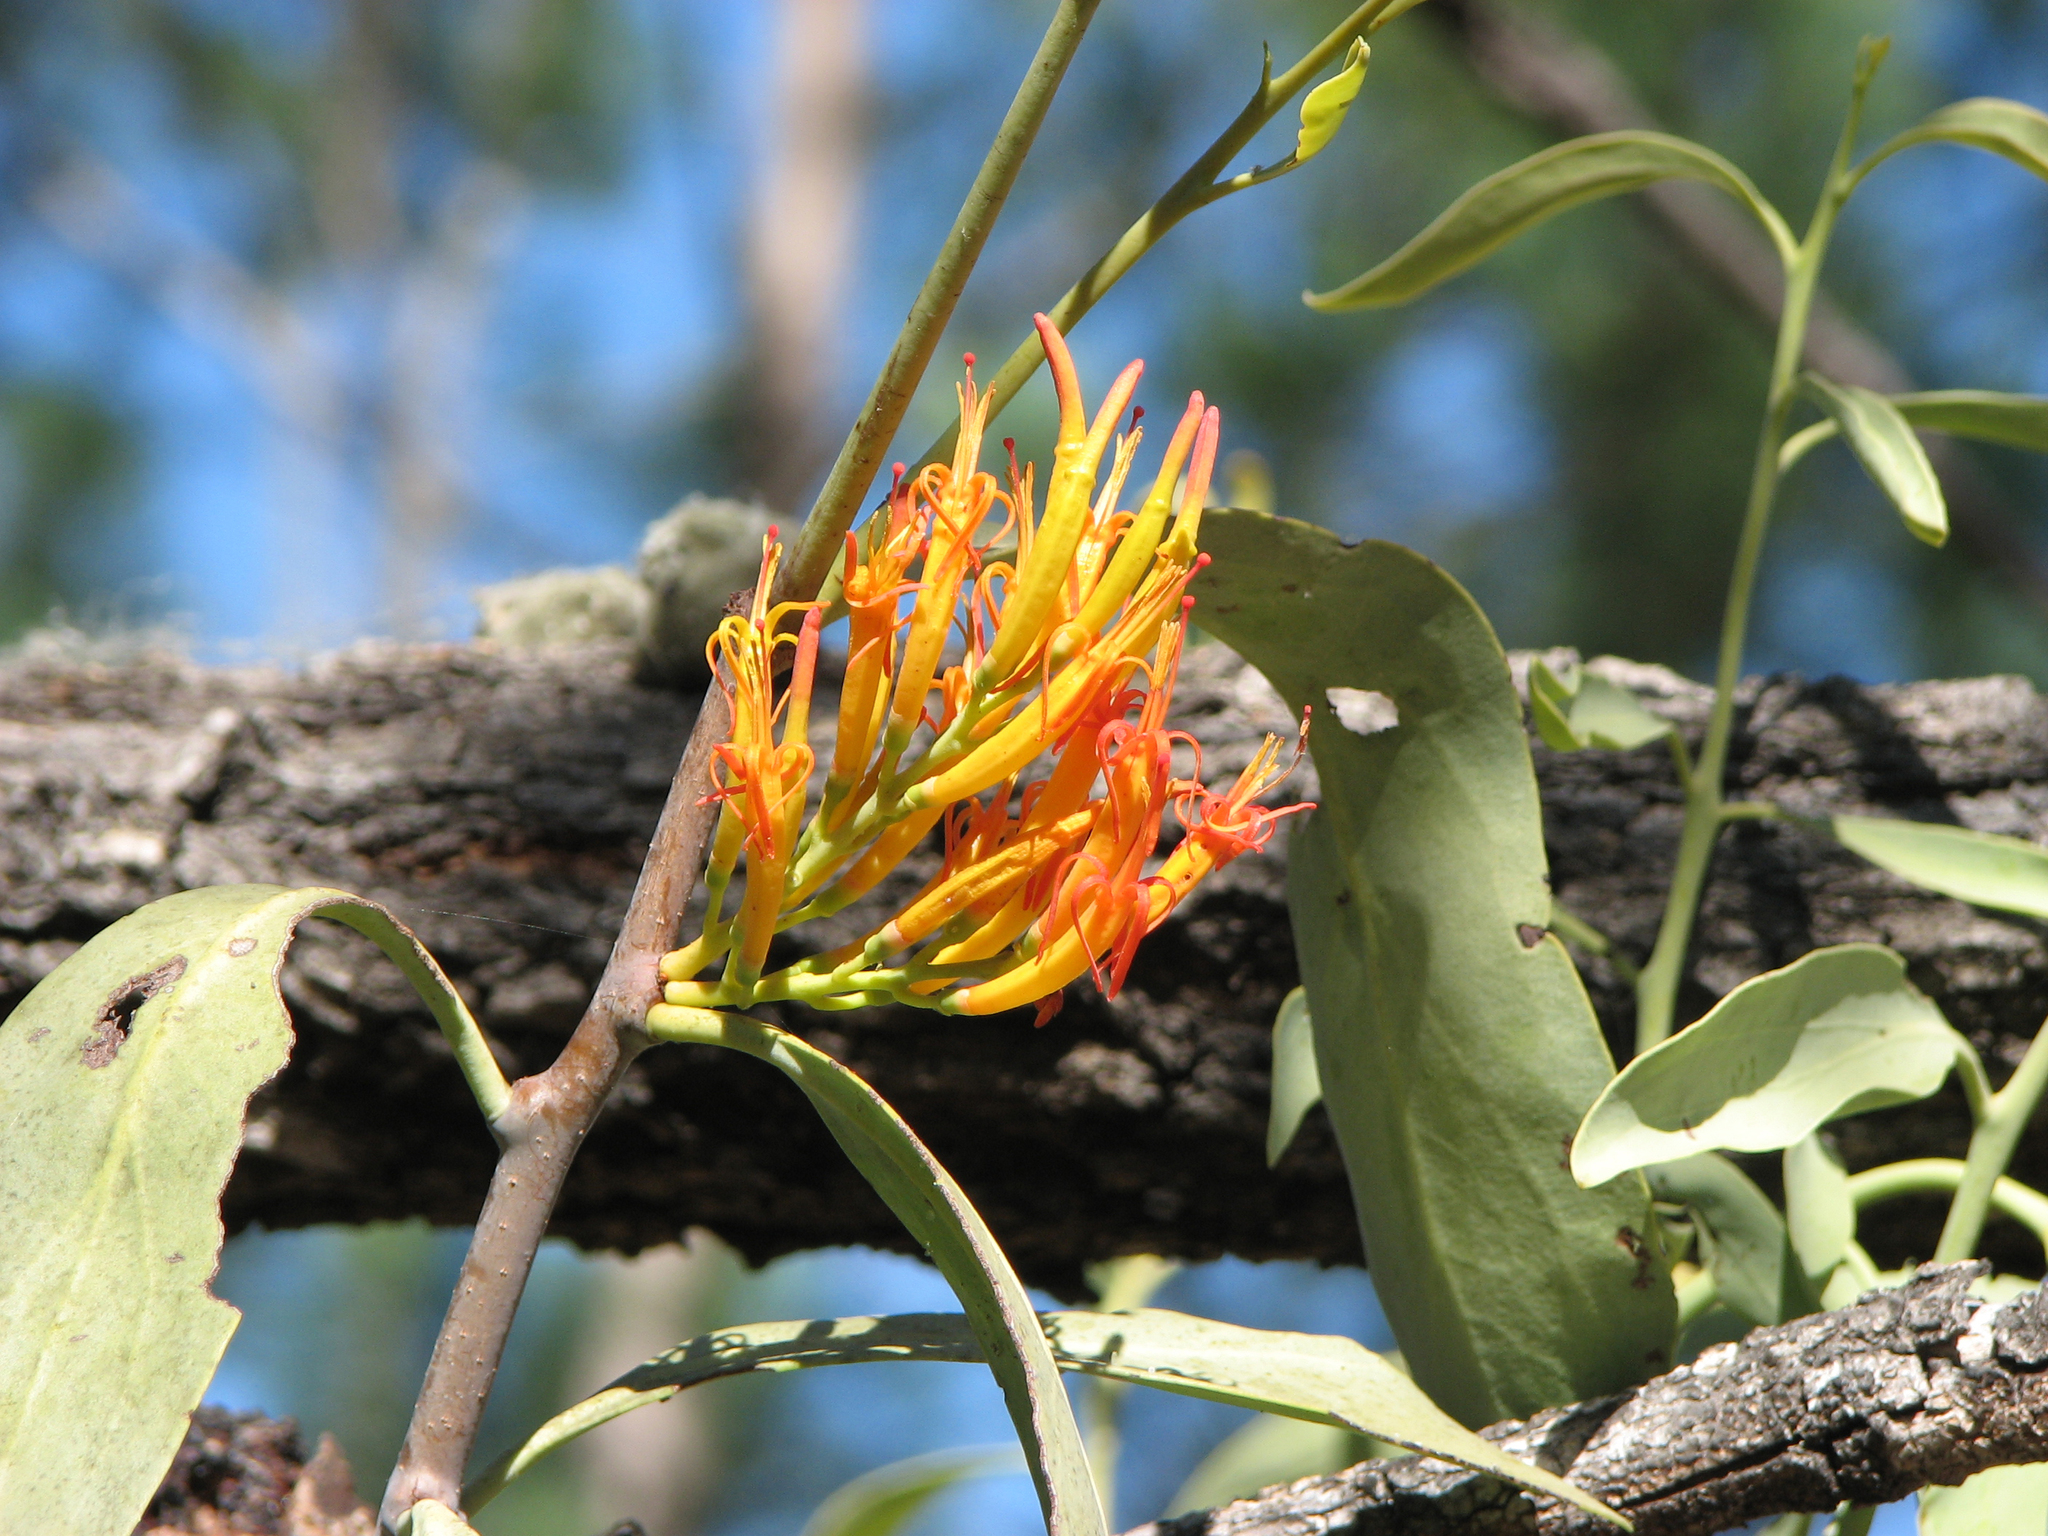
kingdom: Plantae
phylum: Tracheophyta
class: Magnoliopsida
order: Santalales
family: Loranthaceae
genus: Dendrophthoe
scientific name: Dendrophthoe glabrescens
